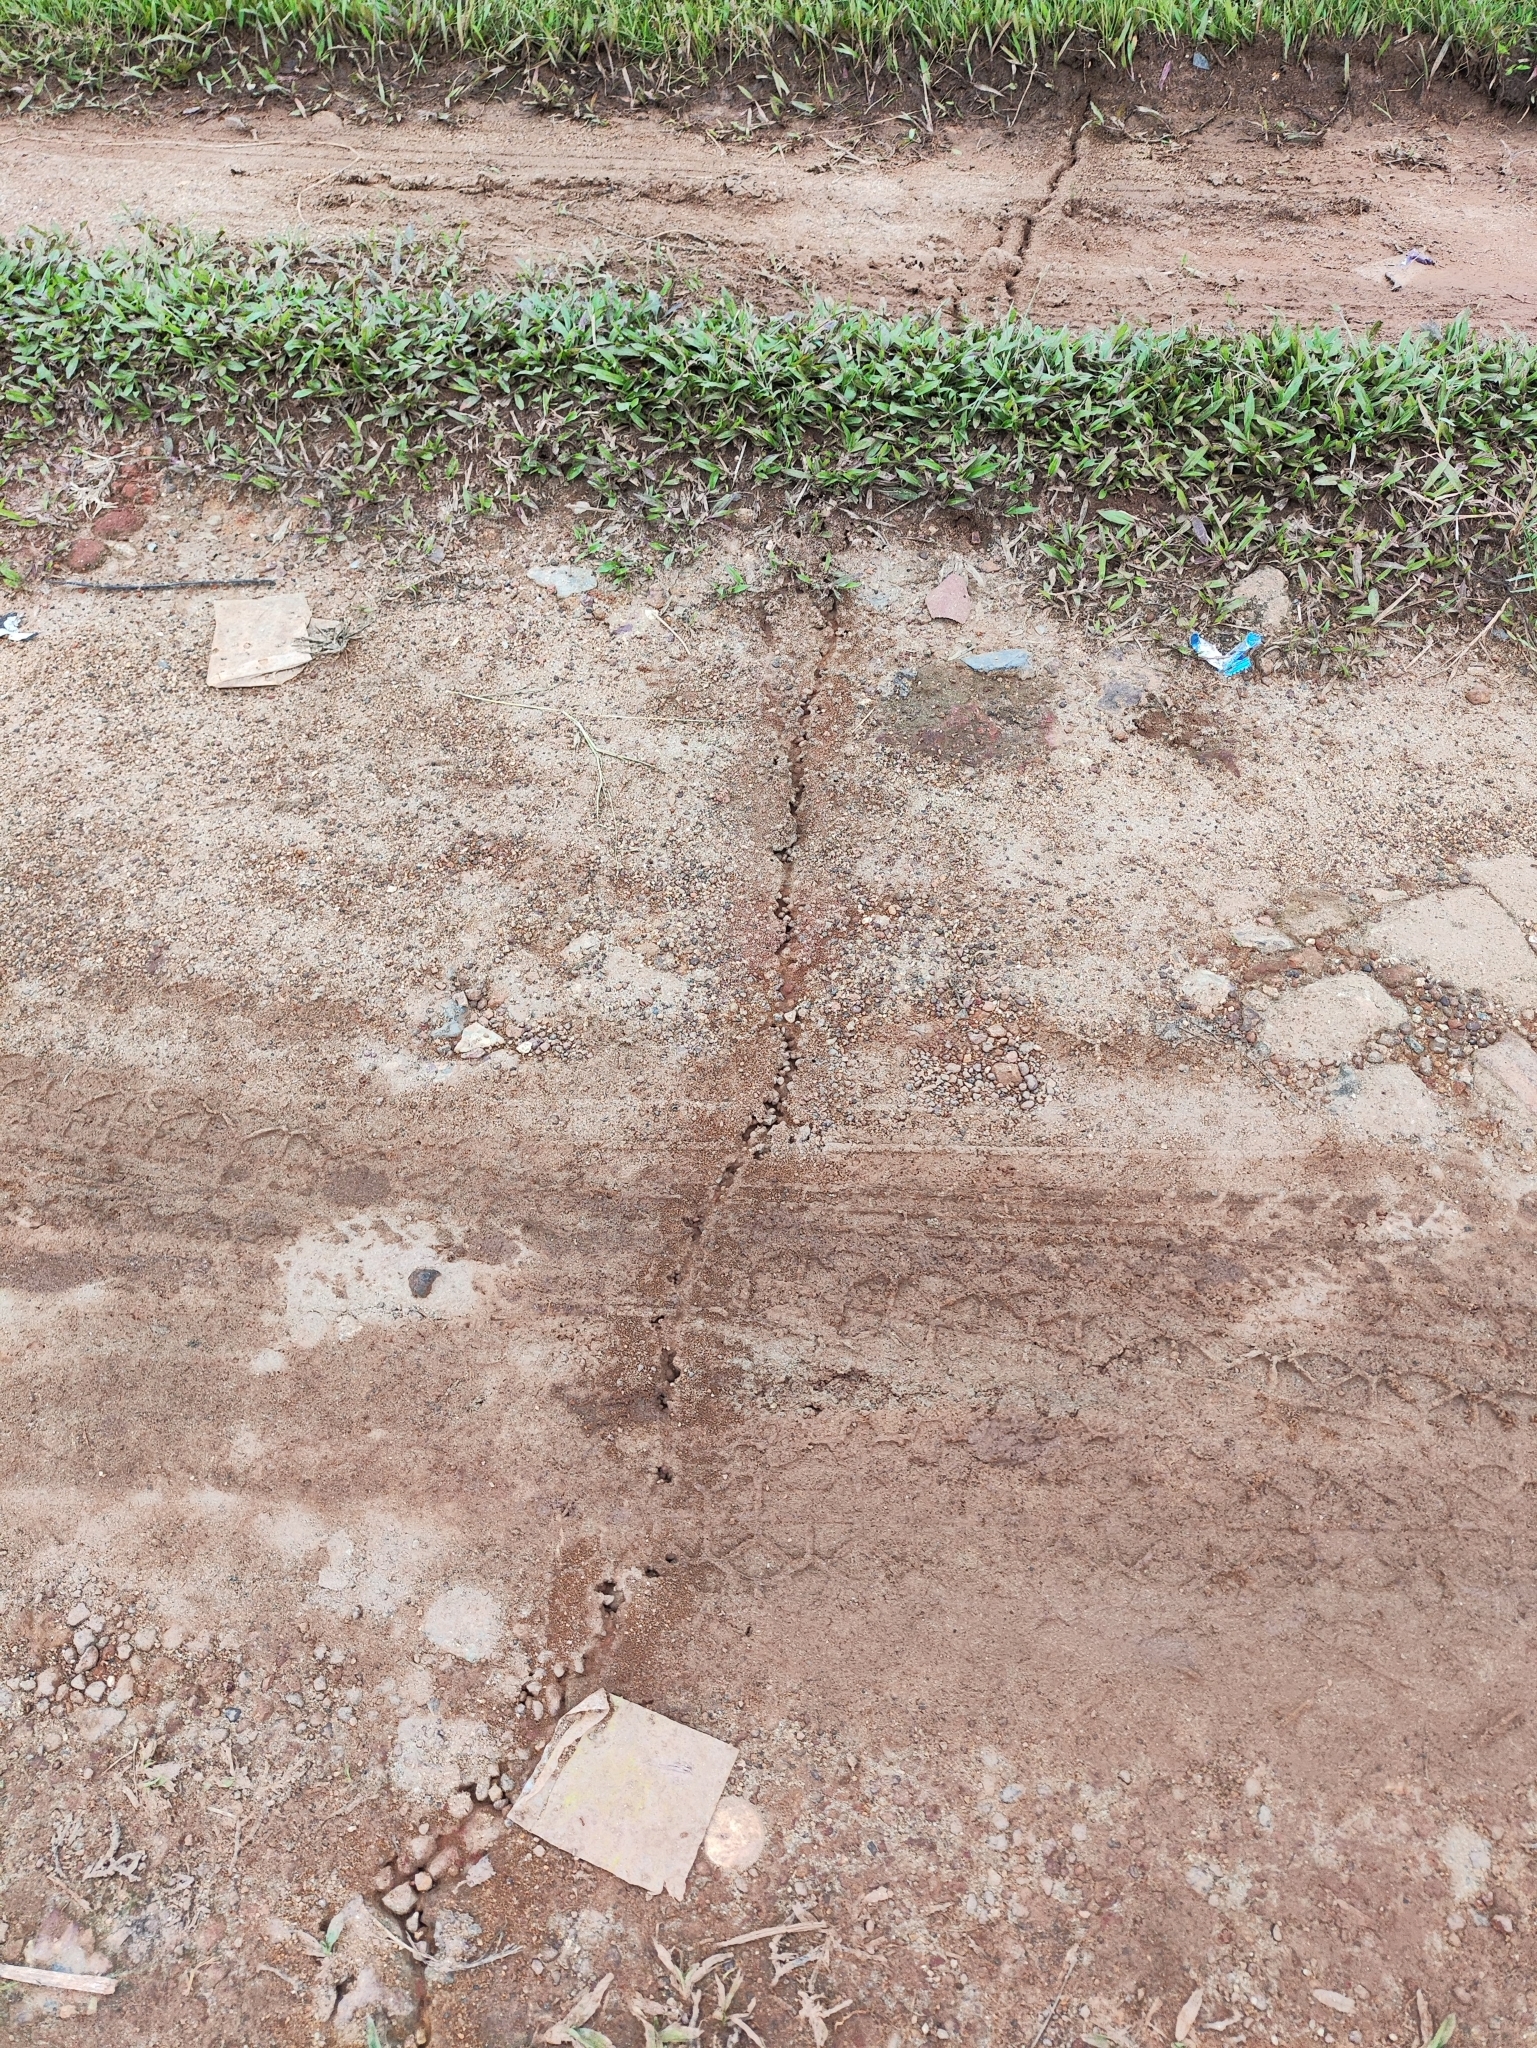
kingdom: Animalia
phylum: Arthropoda
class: Insecta
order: Hymenoptera
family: Formicidae
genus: Solenopsis
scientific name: Solenopsis geminata
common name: Tropical fire ant
